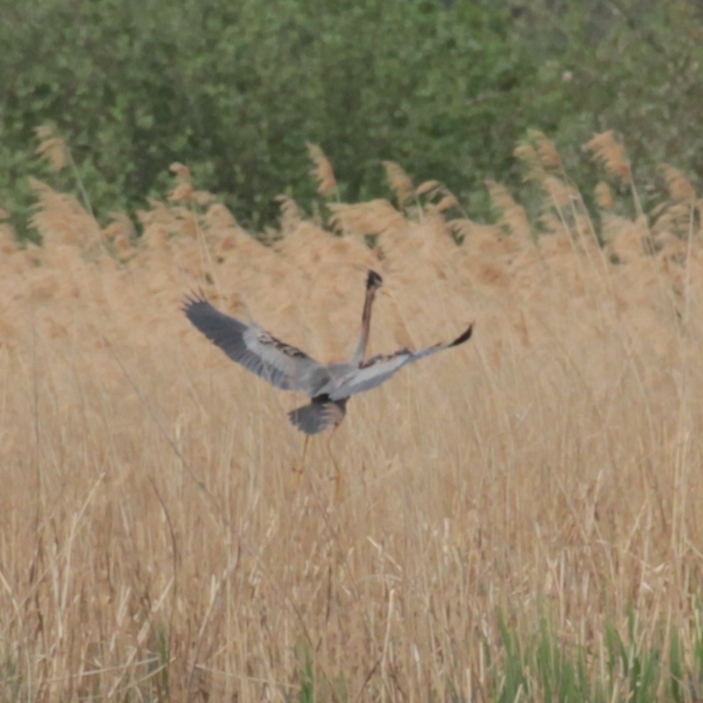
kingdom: Animalia
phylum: Chordata
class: Aves
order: Pelecaniformes
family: Ardeidae
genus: Ardea
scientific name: Ardea purpurea
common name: Purple heron
